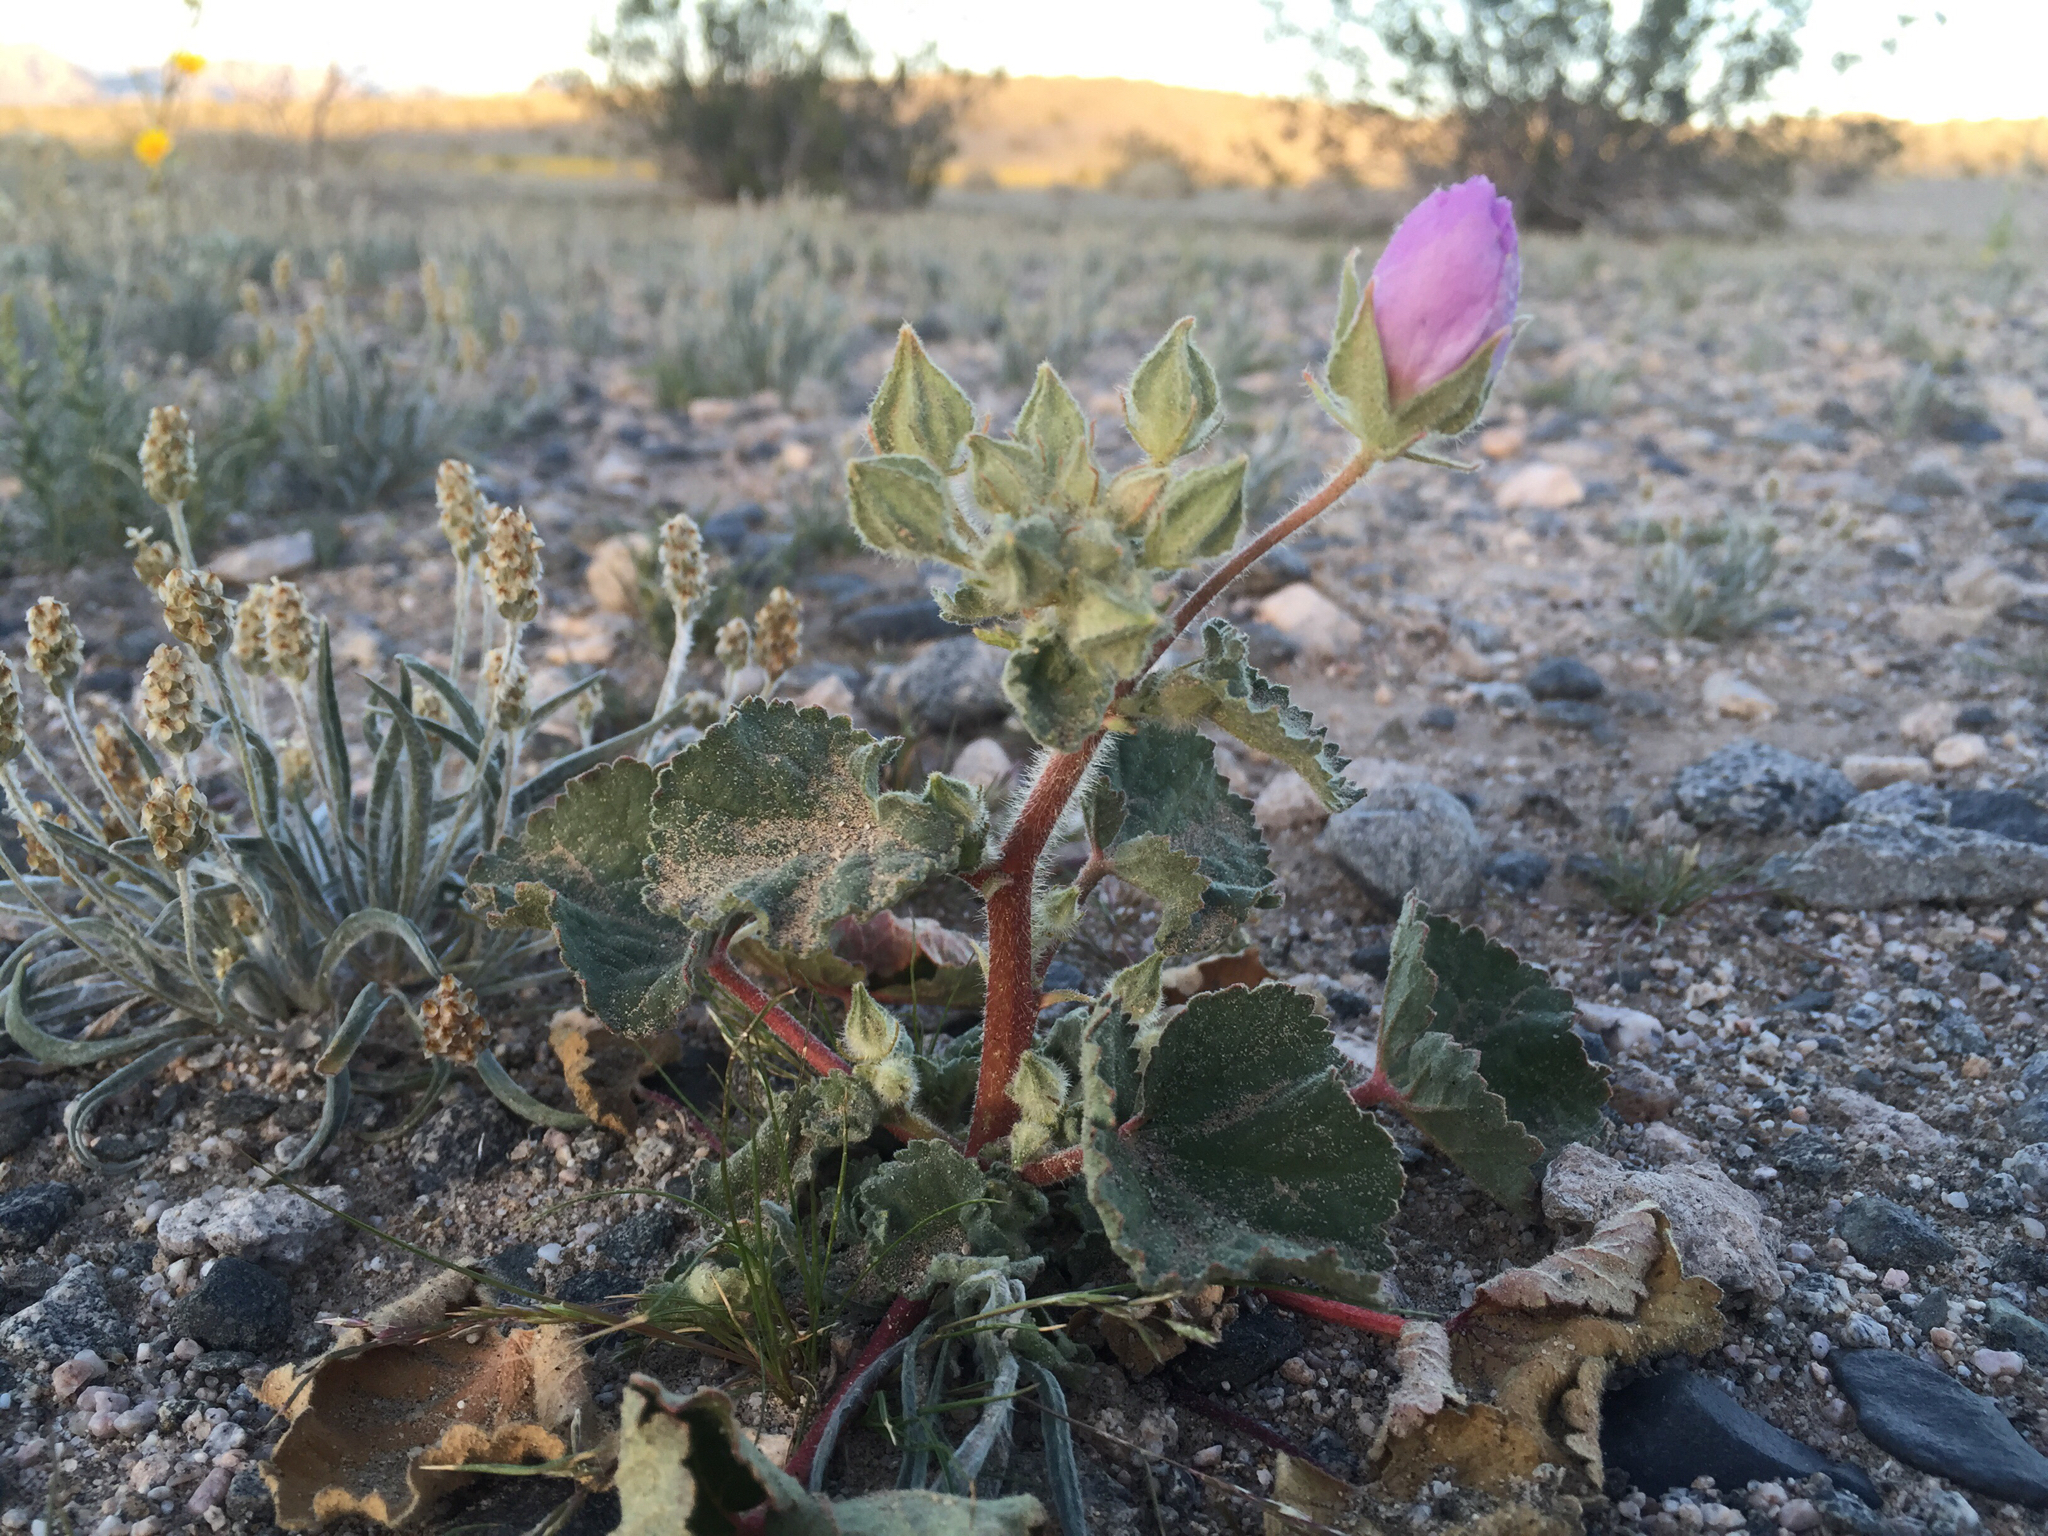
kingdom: Plantae
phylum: Tracheophyta
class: Magnoliopsida
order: Malvales
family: Malvaceae
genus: Eremalche
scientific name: Eremalche rotundifolia
